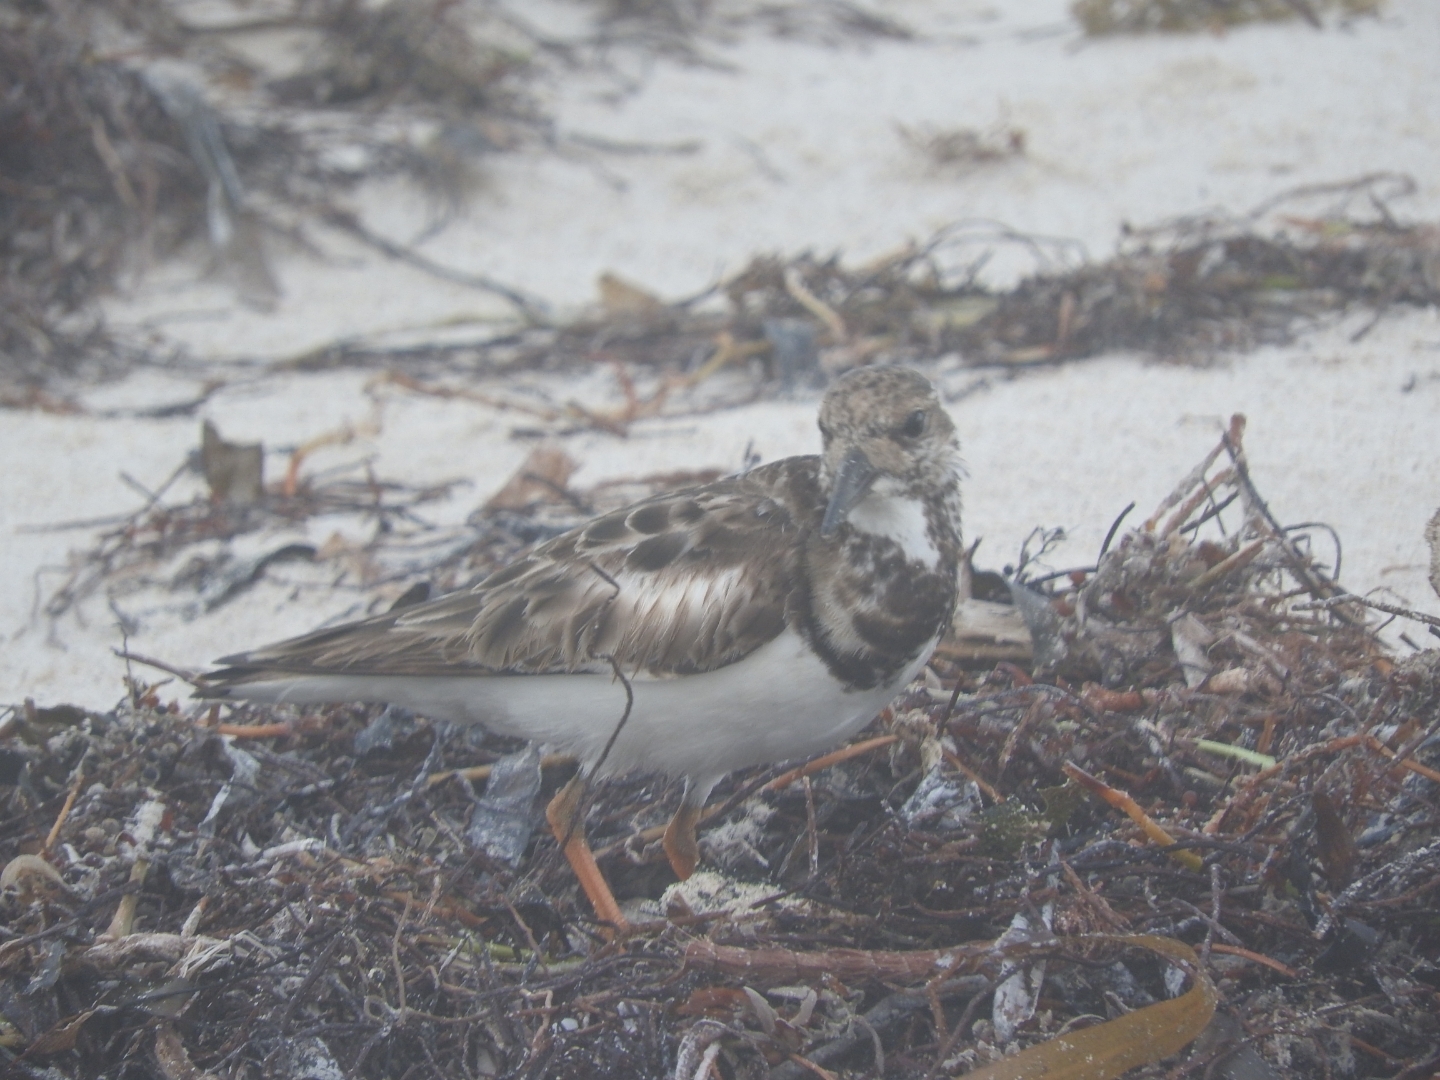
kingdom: Animalia
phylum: Chordata
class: Aves
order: Charadriiformes
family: Scolopacidae
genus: Arenaria
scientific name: Arenaria interpres
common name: Ruddy turnstone
